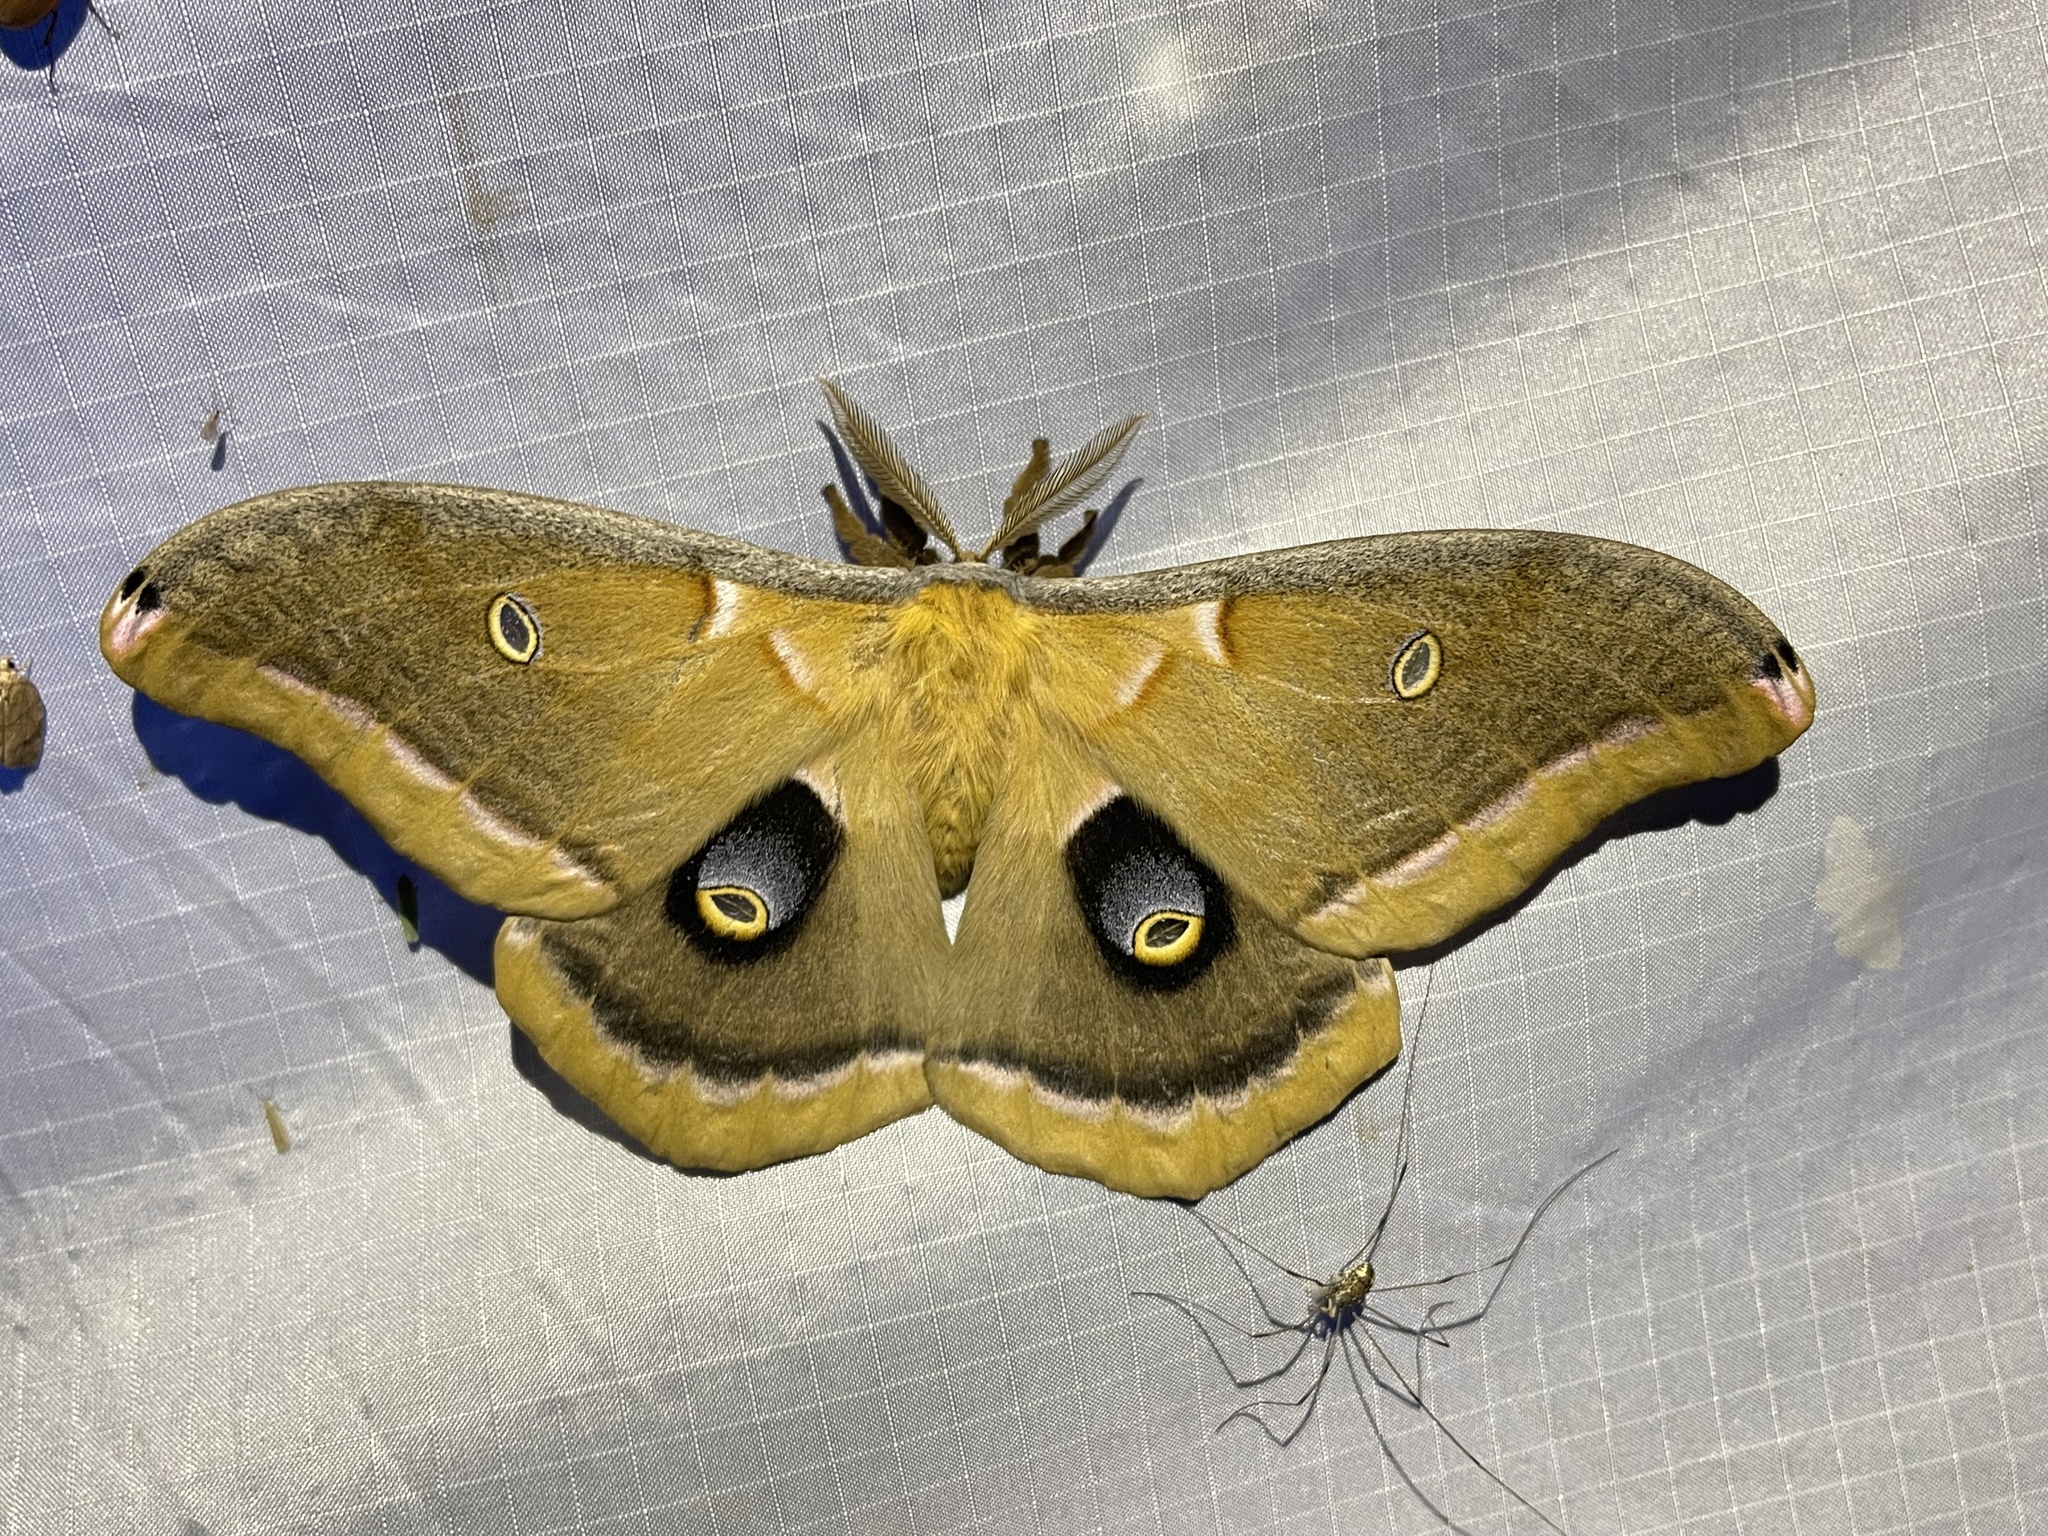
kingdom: Animalia
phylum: Arthropoda
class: Insecta
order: Lepidoptera
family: Saturniidae
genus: Antheraea
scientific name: Antheraea polyphemus
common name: Polyphemus moth
